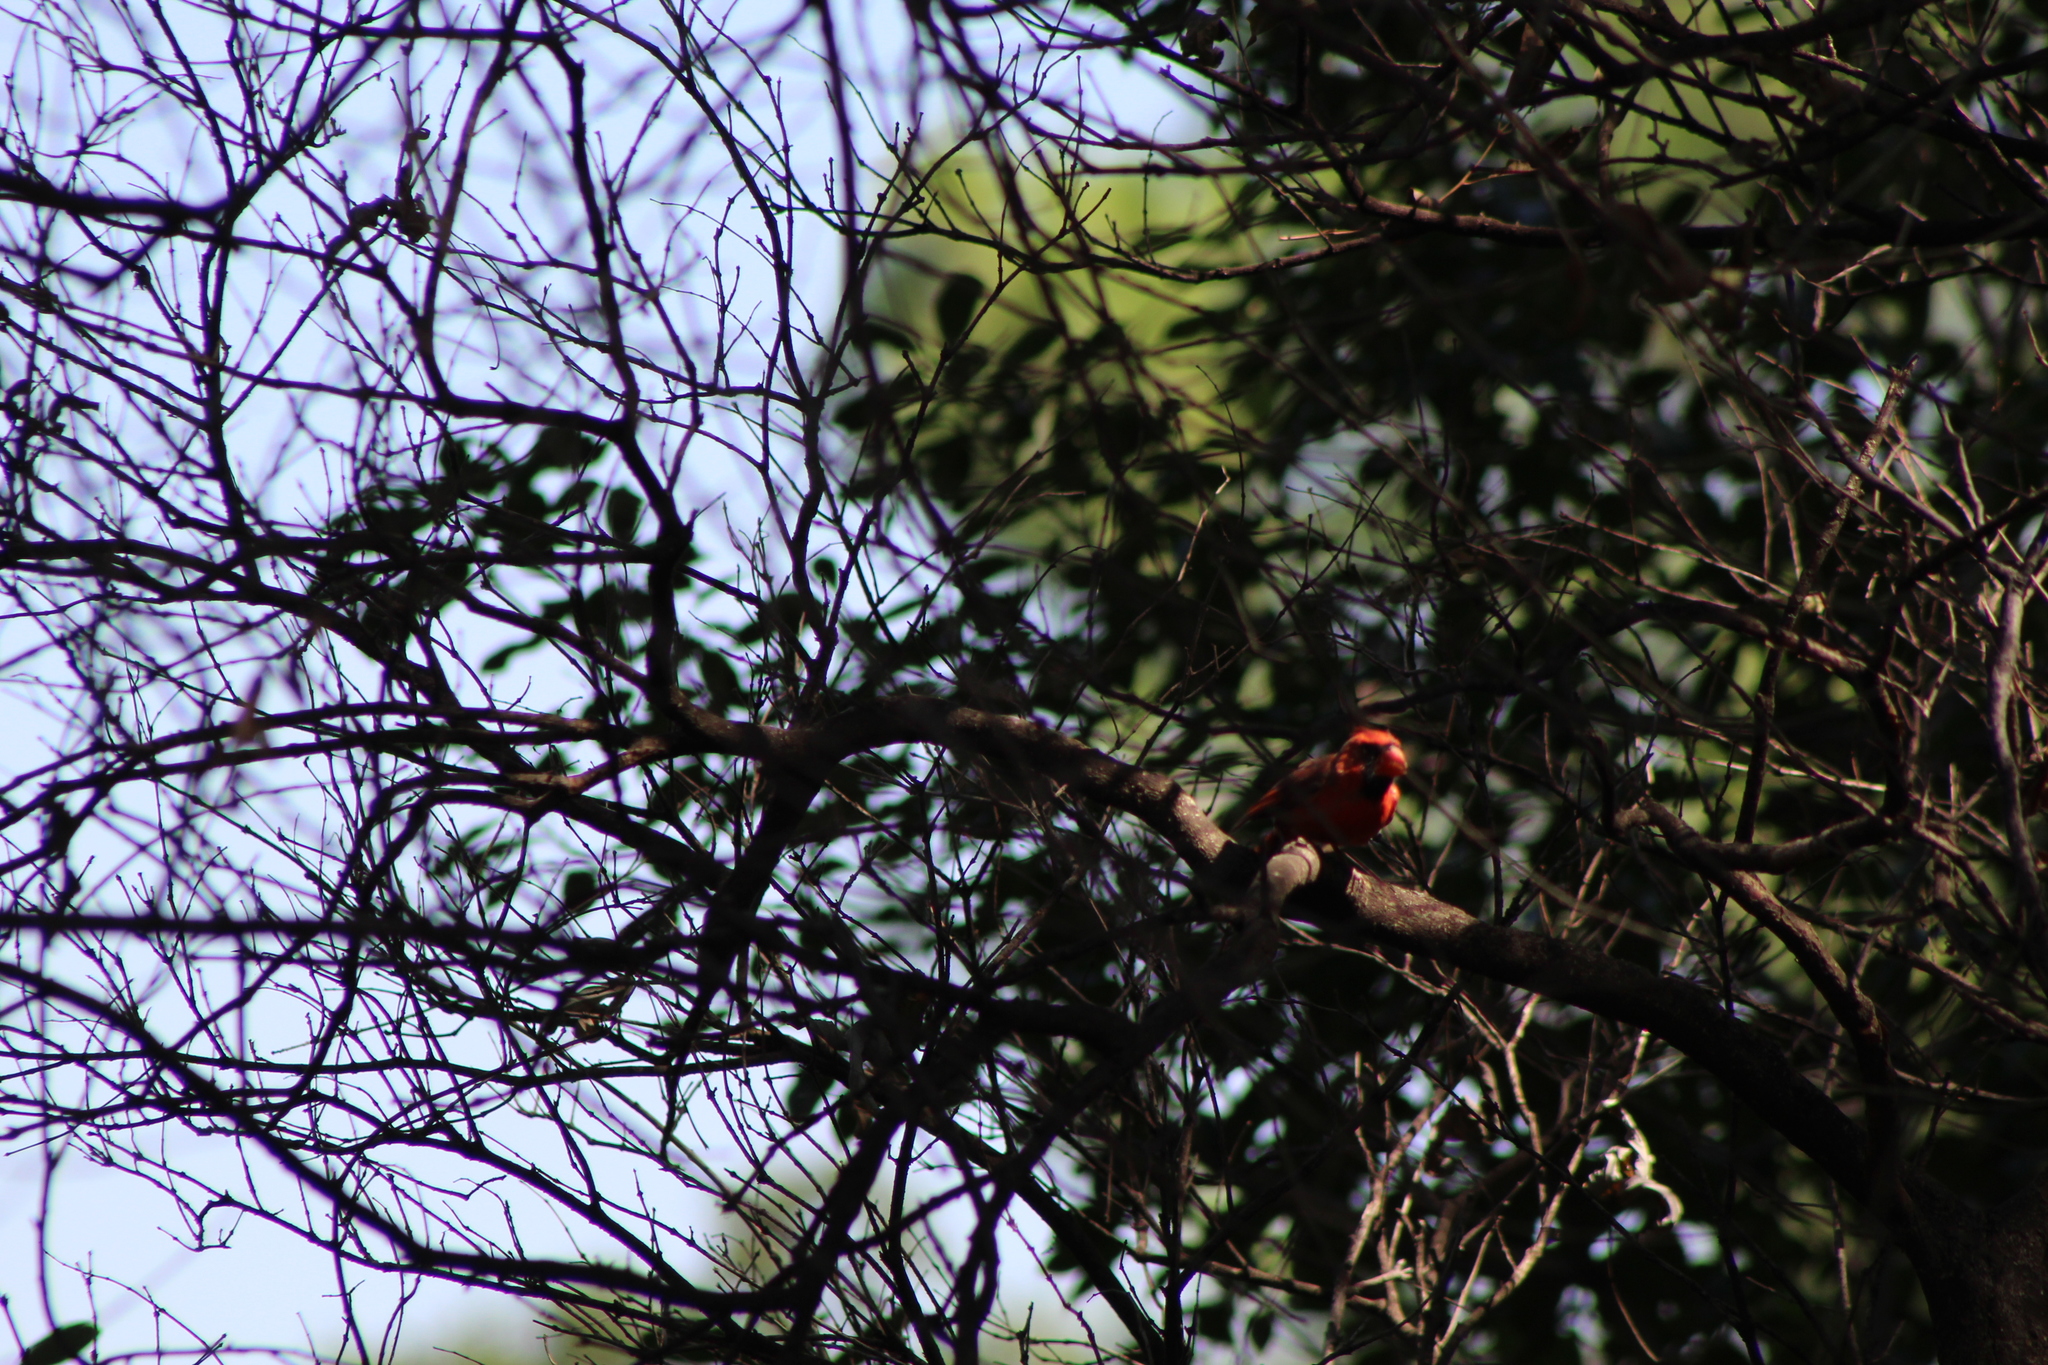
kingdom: Animalia
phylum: Chordata
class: Aves
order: Passeriformes
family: Cardinalidae
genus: Cardinalis
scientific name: Cardinalis cardinalis
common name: Northern cardinal
